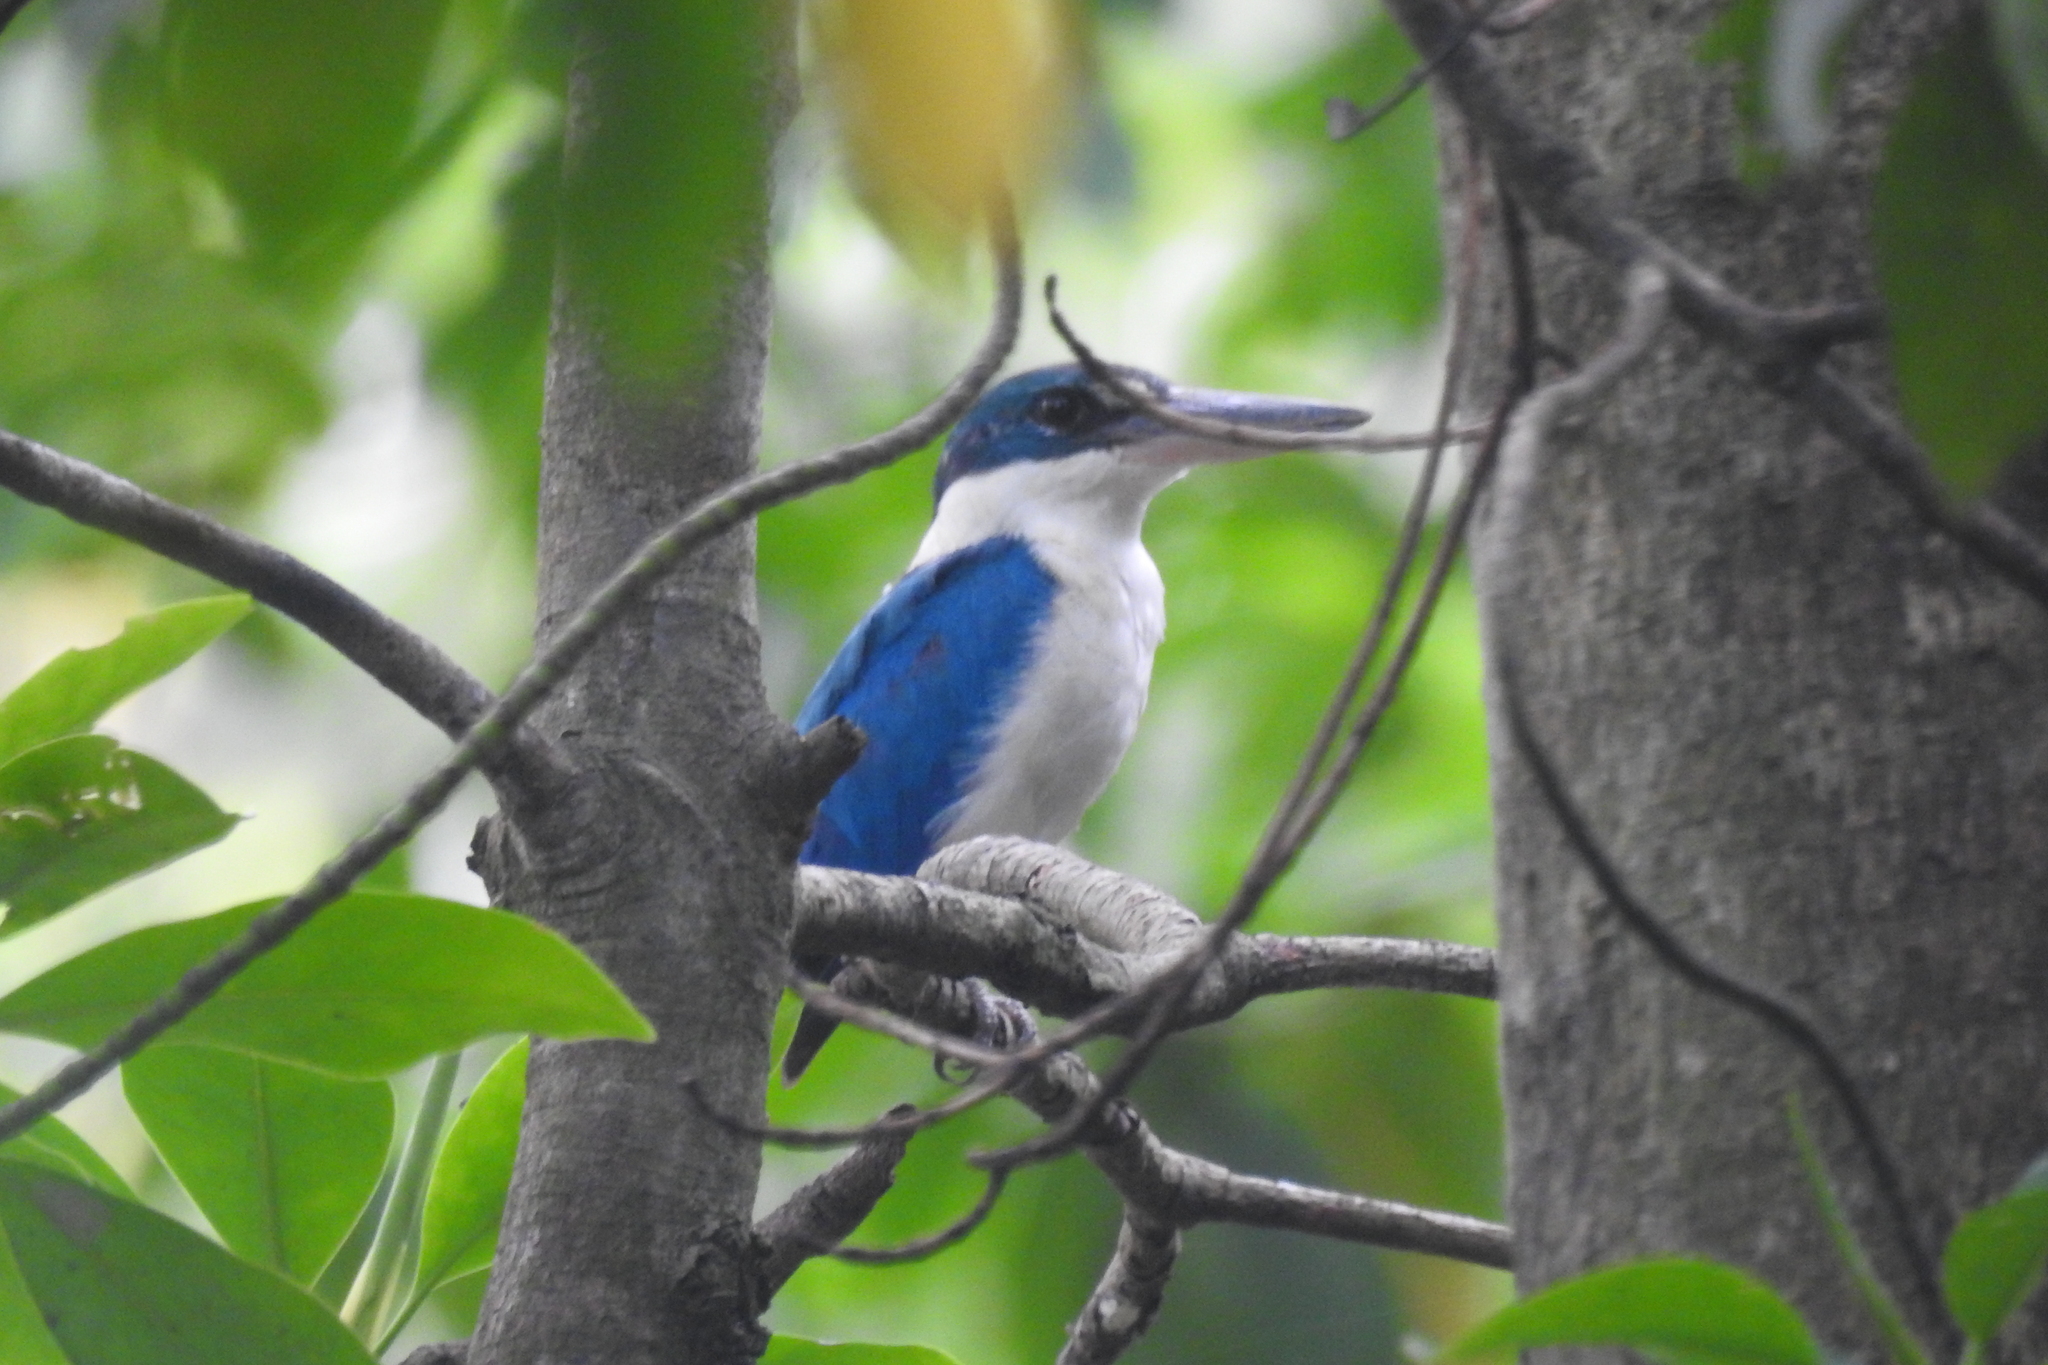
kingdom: Animalia
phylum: Chordata
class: Aves
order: Coraciiformes
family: Alcedinidae
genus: Todiramphus
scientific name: Todiramphus chloris
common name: Collared kingfisher
